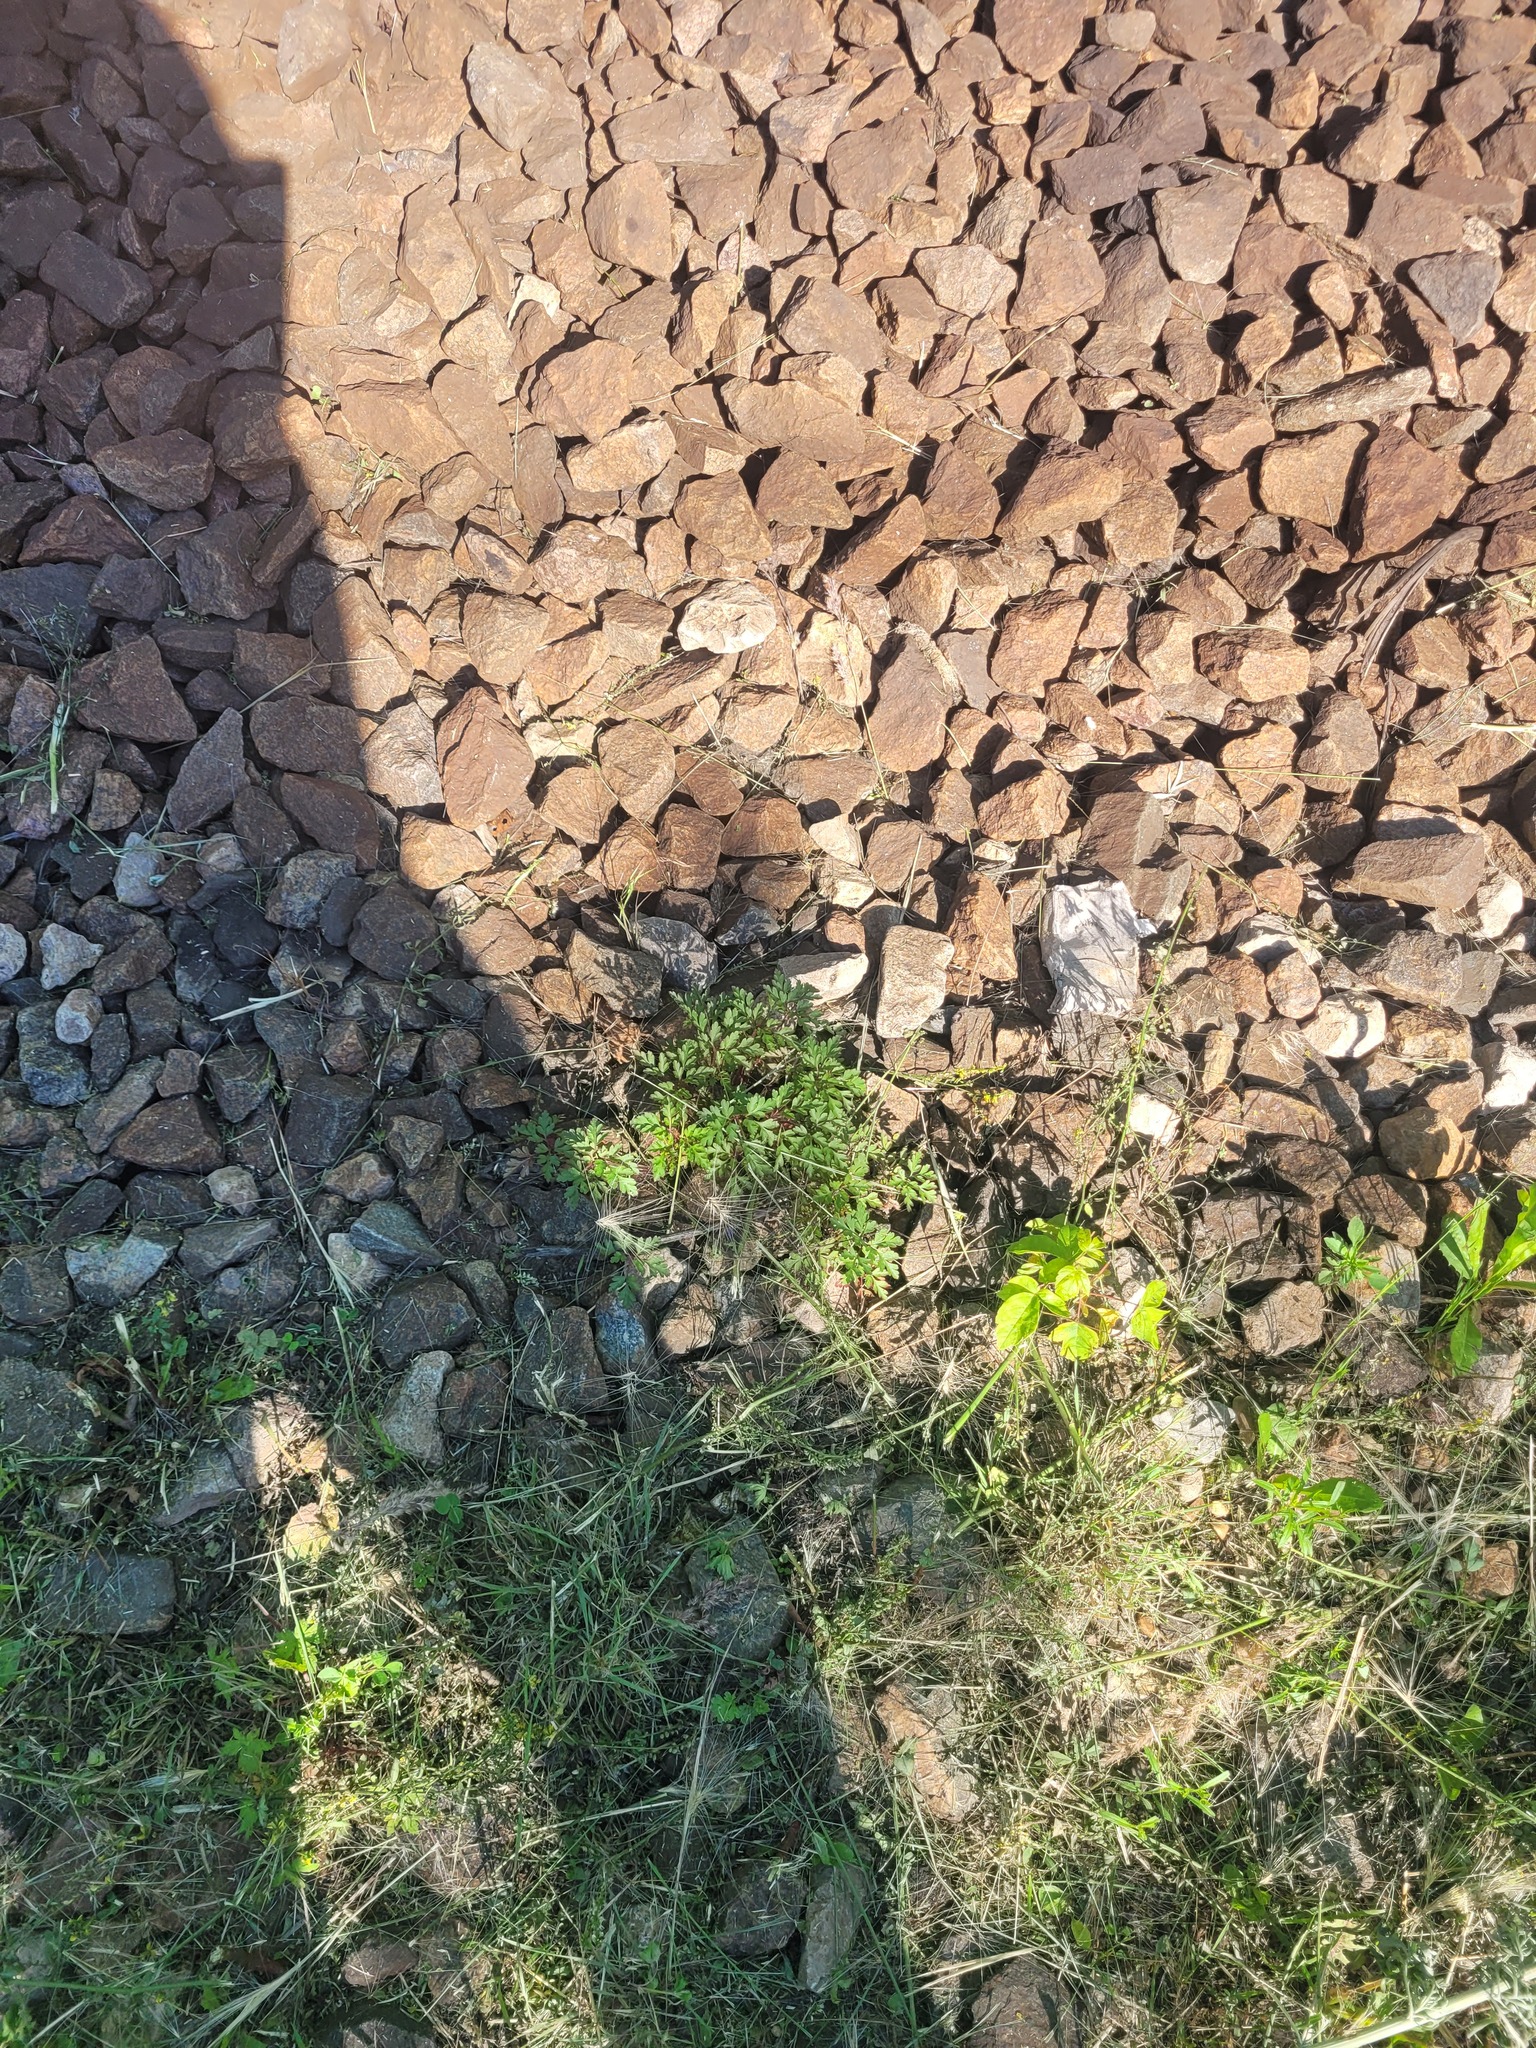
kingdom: Plantae
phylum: Tracheophyta
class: Magnoliopsida
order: Geraniales
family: Geraniaceae
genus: Geranium
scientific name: Geranium robertianum
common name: Herb-robert
